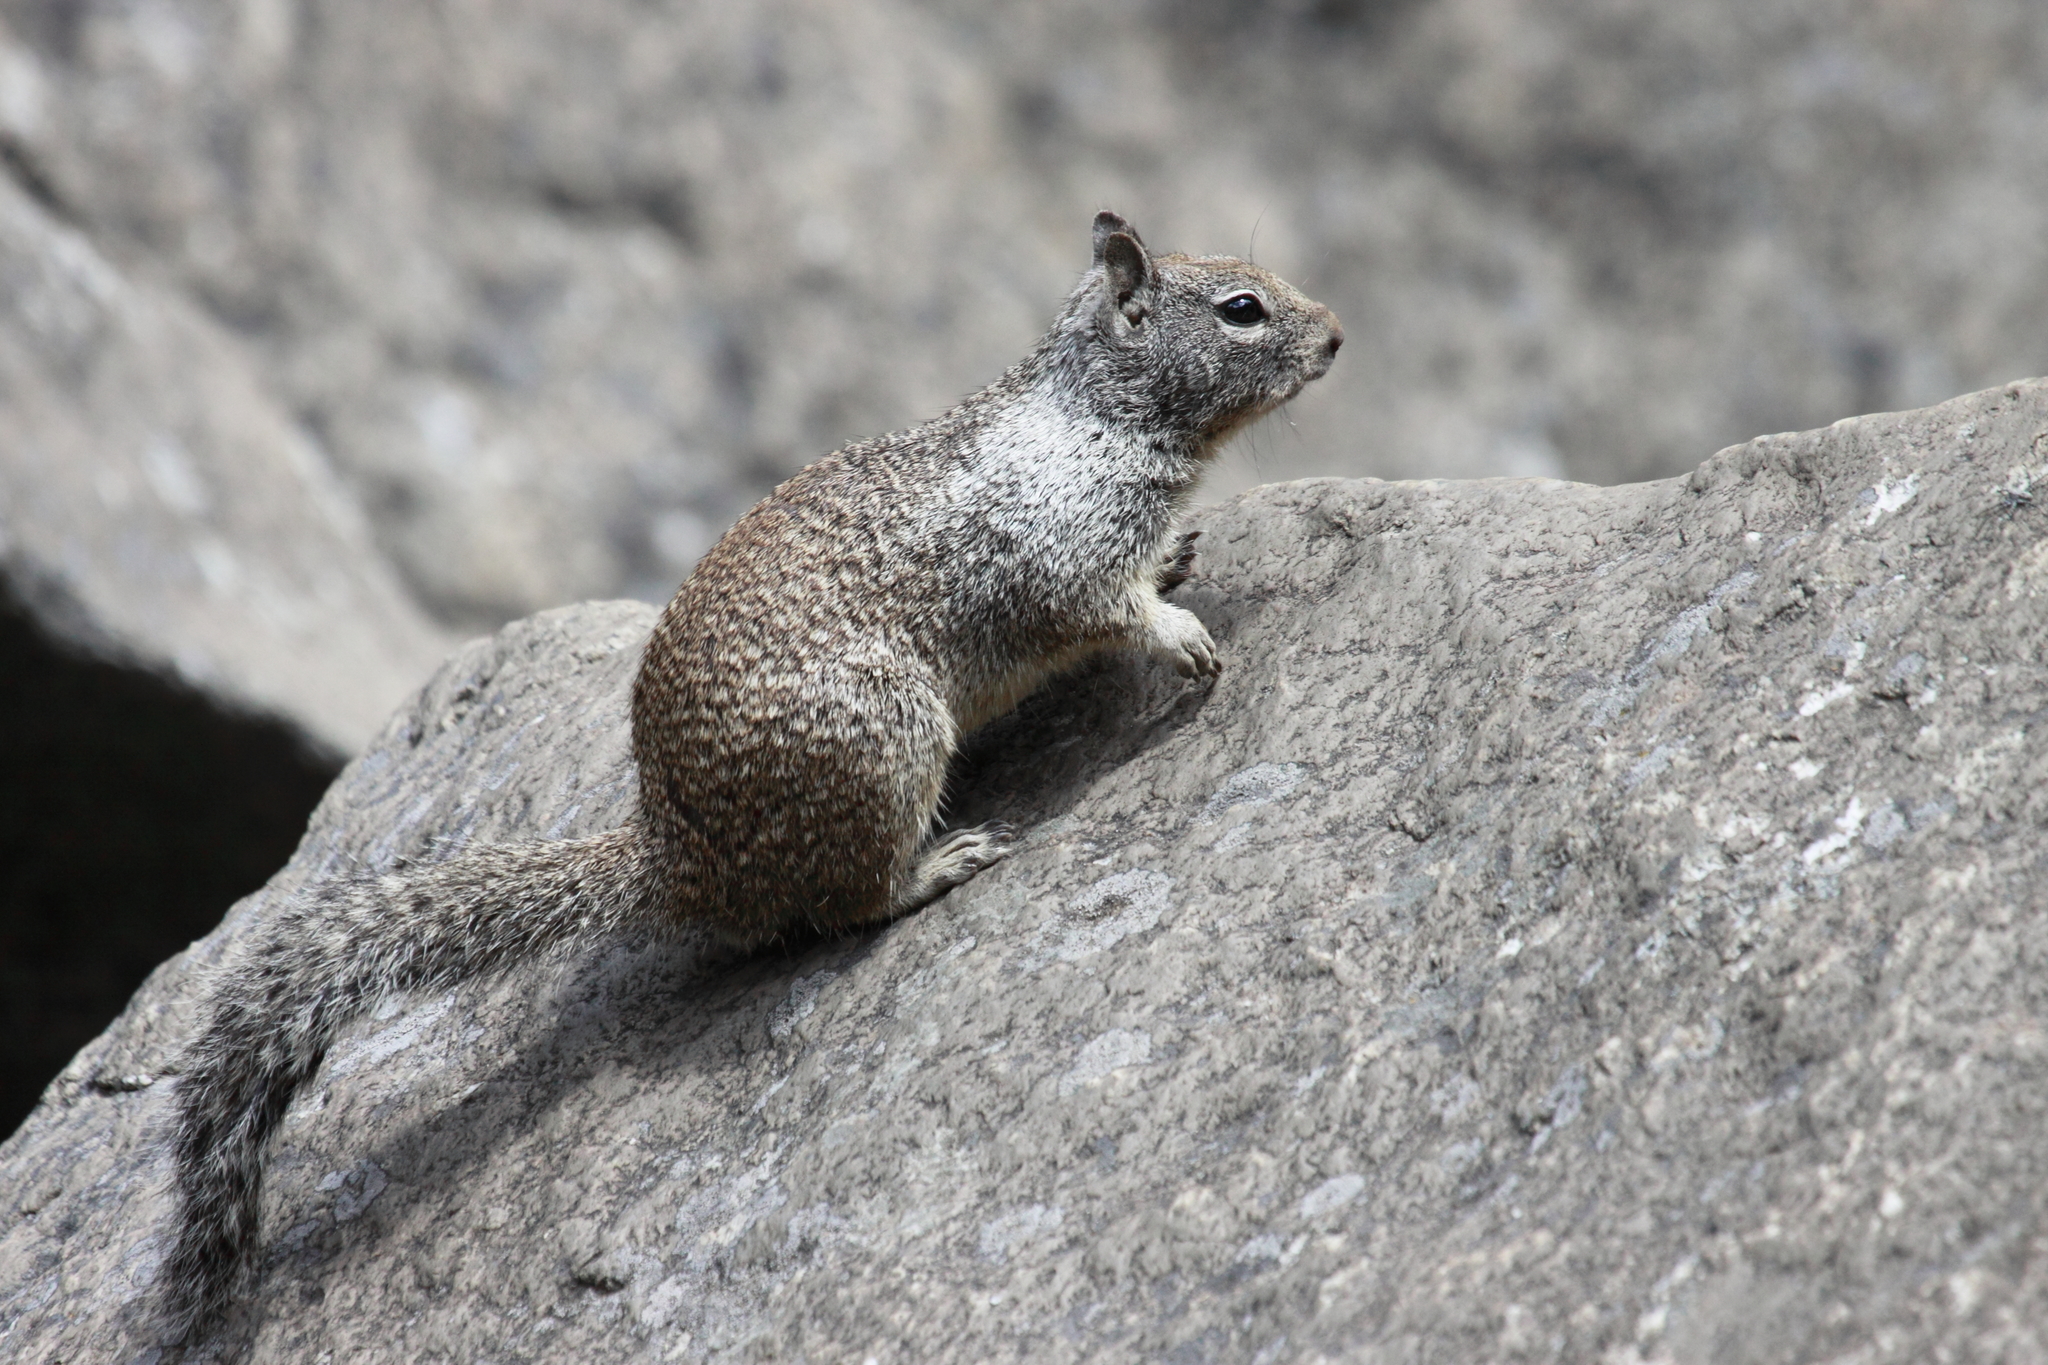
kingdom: Animalia
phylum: Chordata
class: Mammalia
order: Rodentia
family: Sciuridae
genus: Otospermophilus
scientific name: Otospermophilus beecheyi
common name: California ground squirrel
